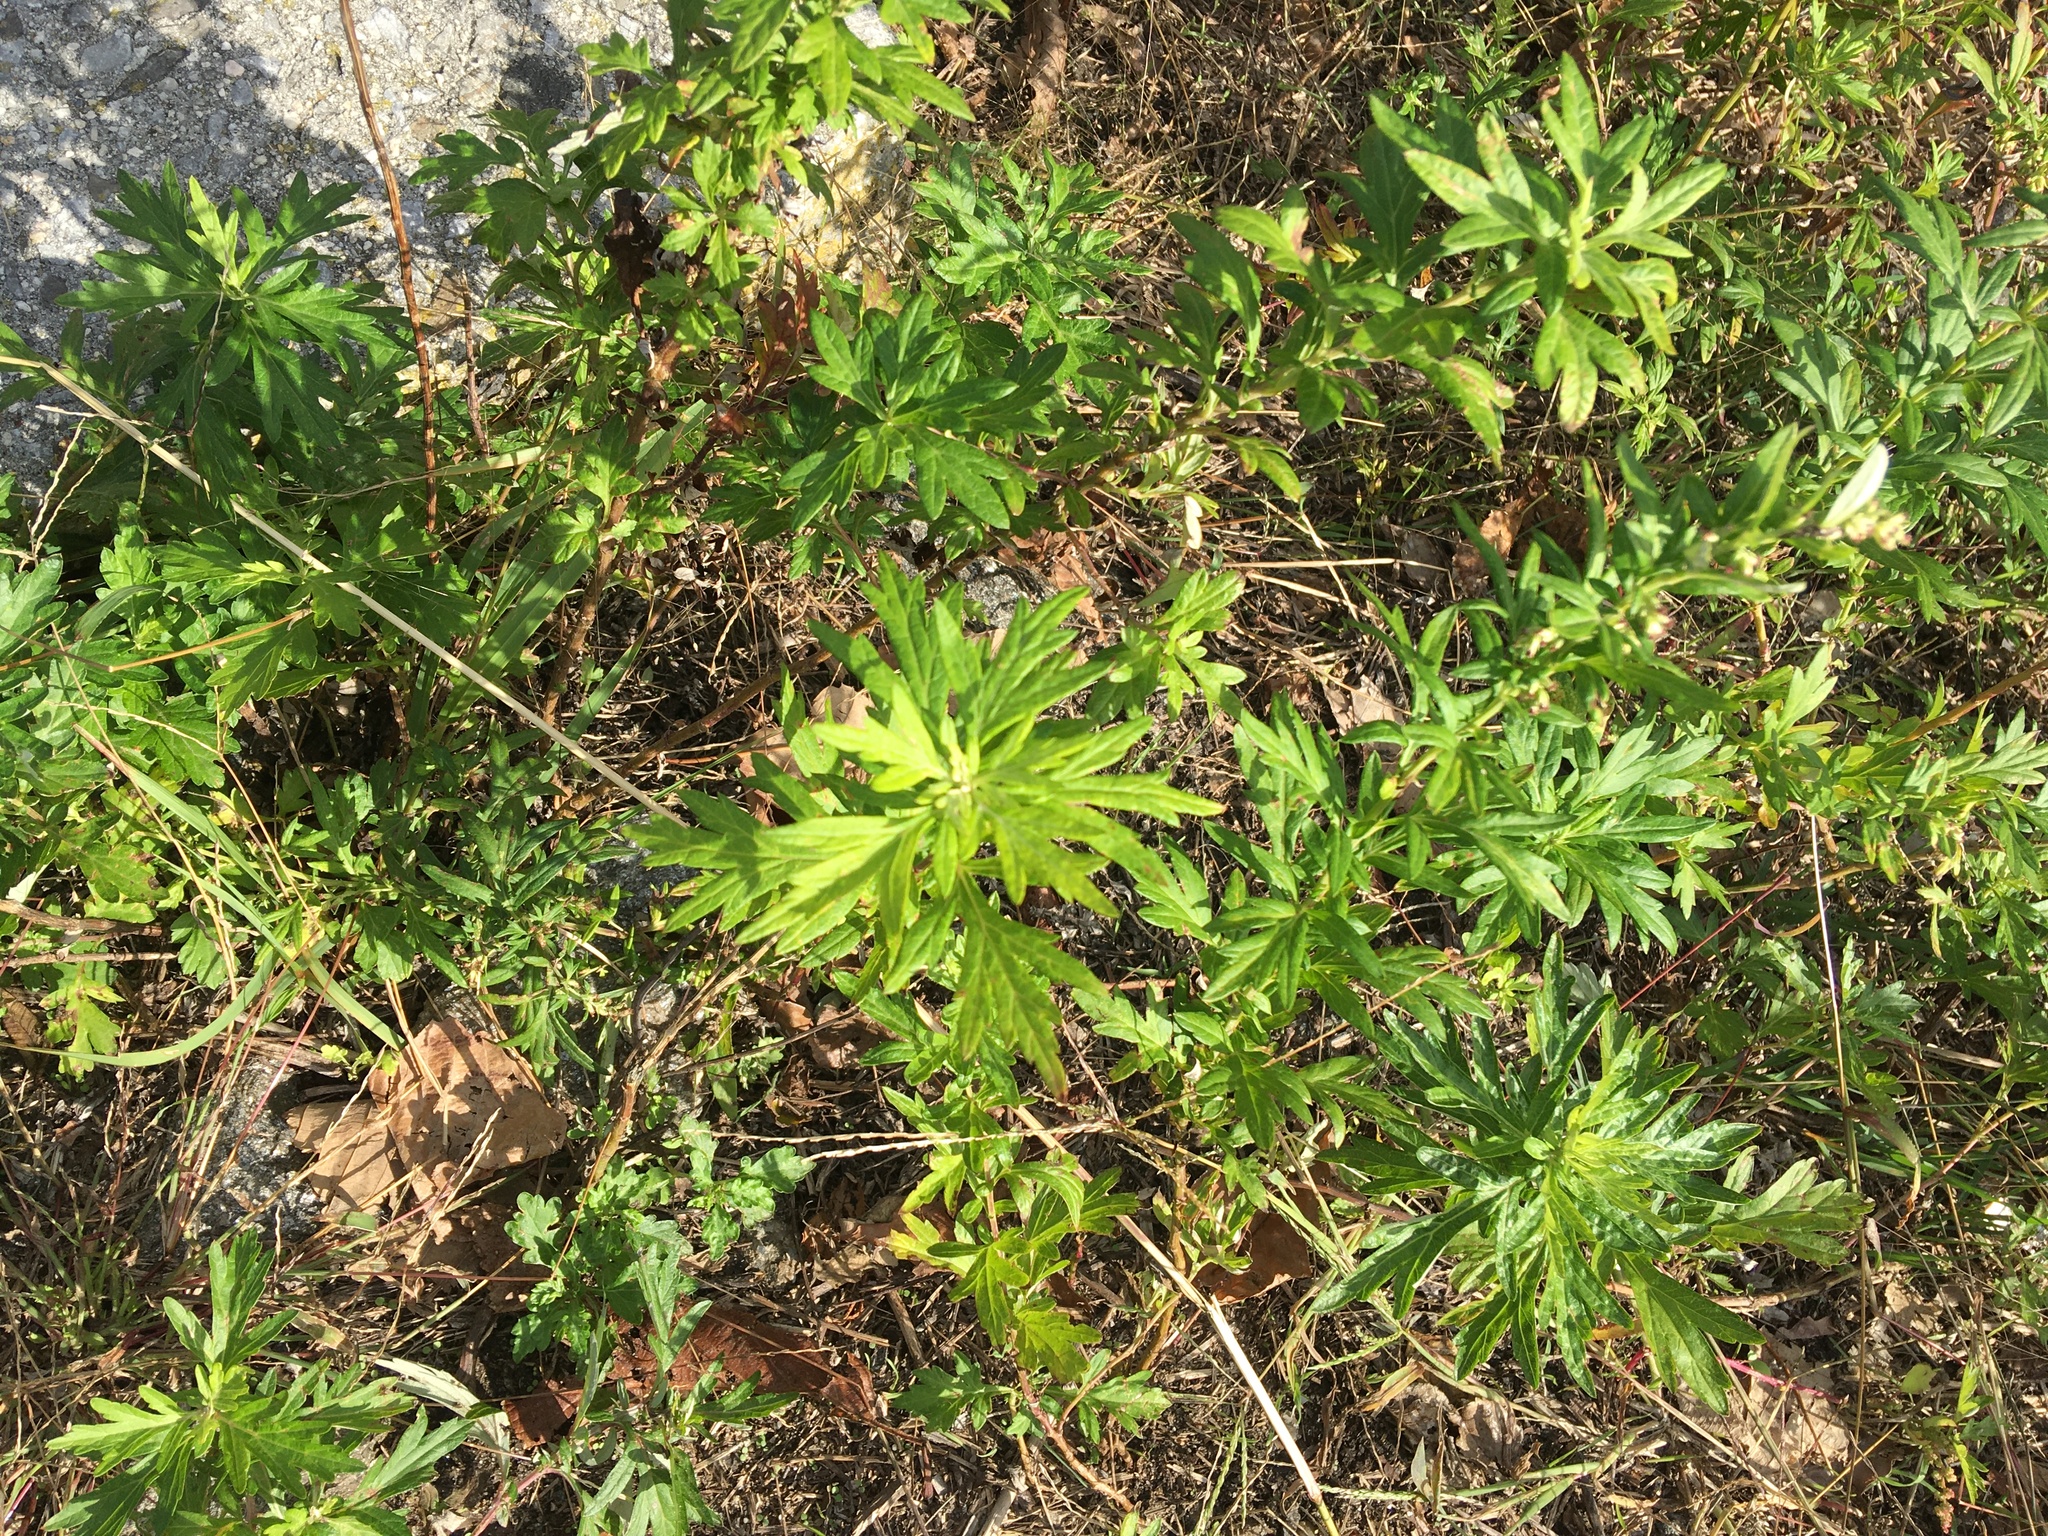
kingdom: Plantae
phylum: Tracheophyta
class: Magnoliopsida
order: Asterales
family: Asteraceae
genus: Artemisia
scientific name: Artemisia vulgaris
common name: Mugwort
